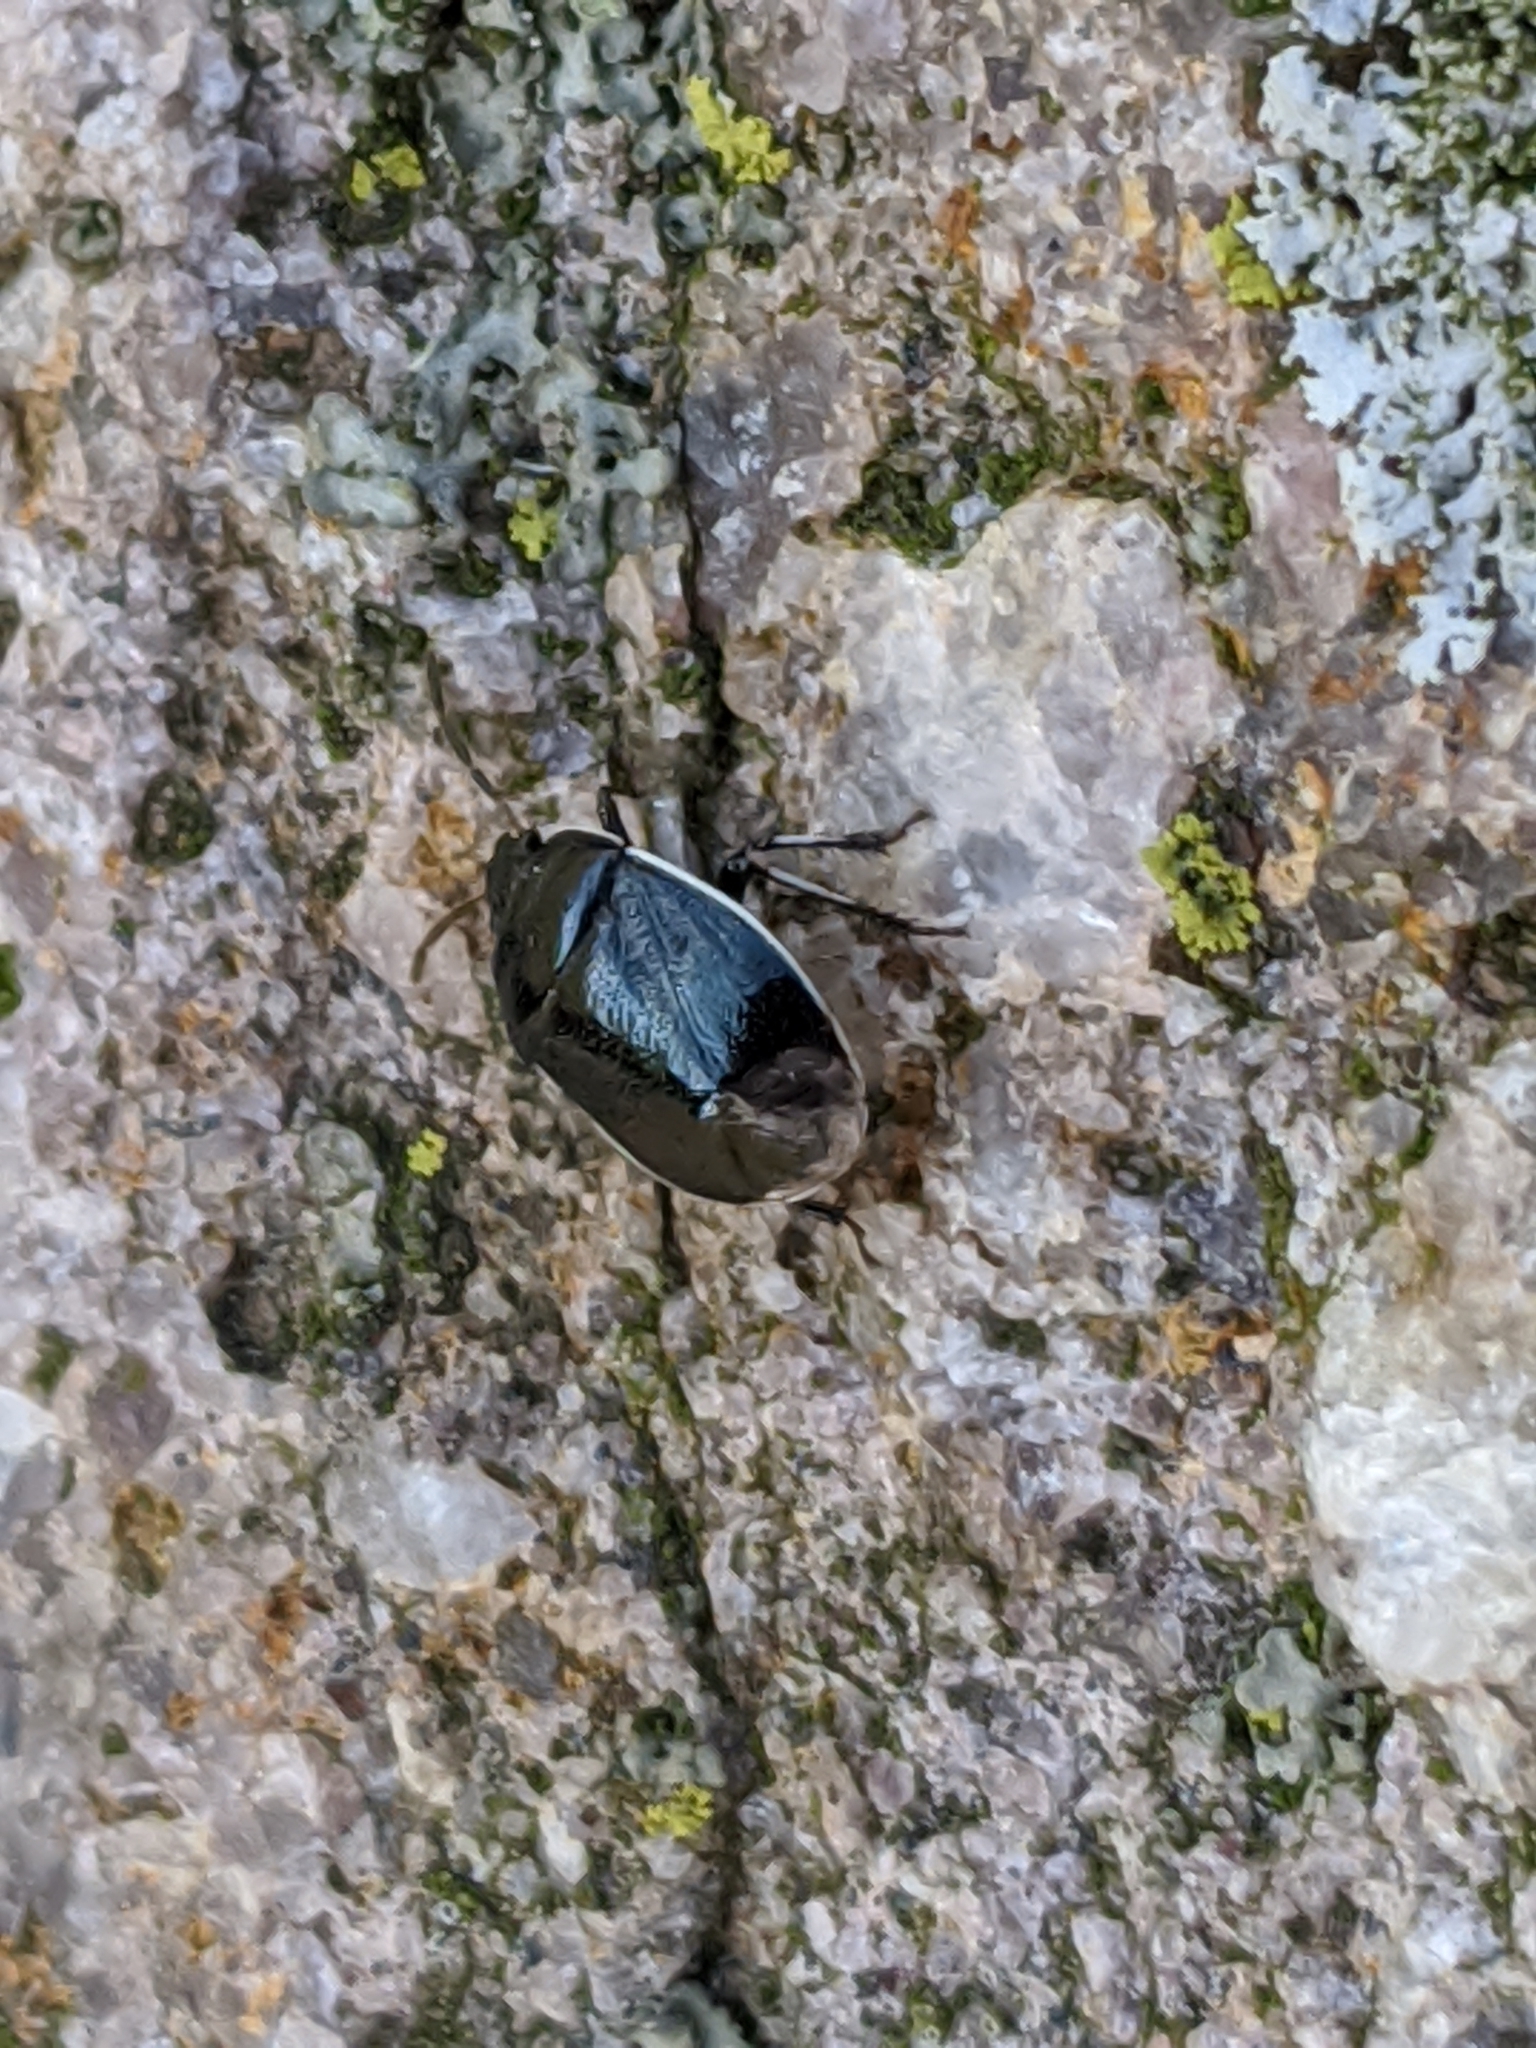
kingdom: Animalia
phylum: Arthropoda
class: Insecta
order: Hemiptera
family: Cydnidae
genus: Sehirus
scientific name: Sehirus cinctus
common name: White-margined burrower bug
